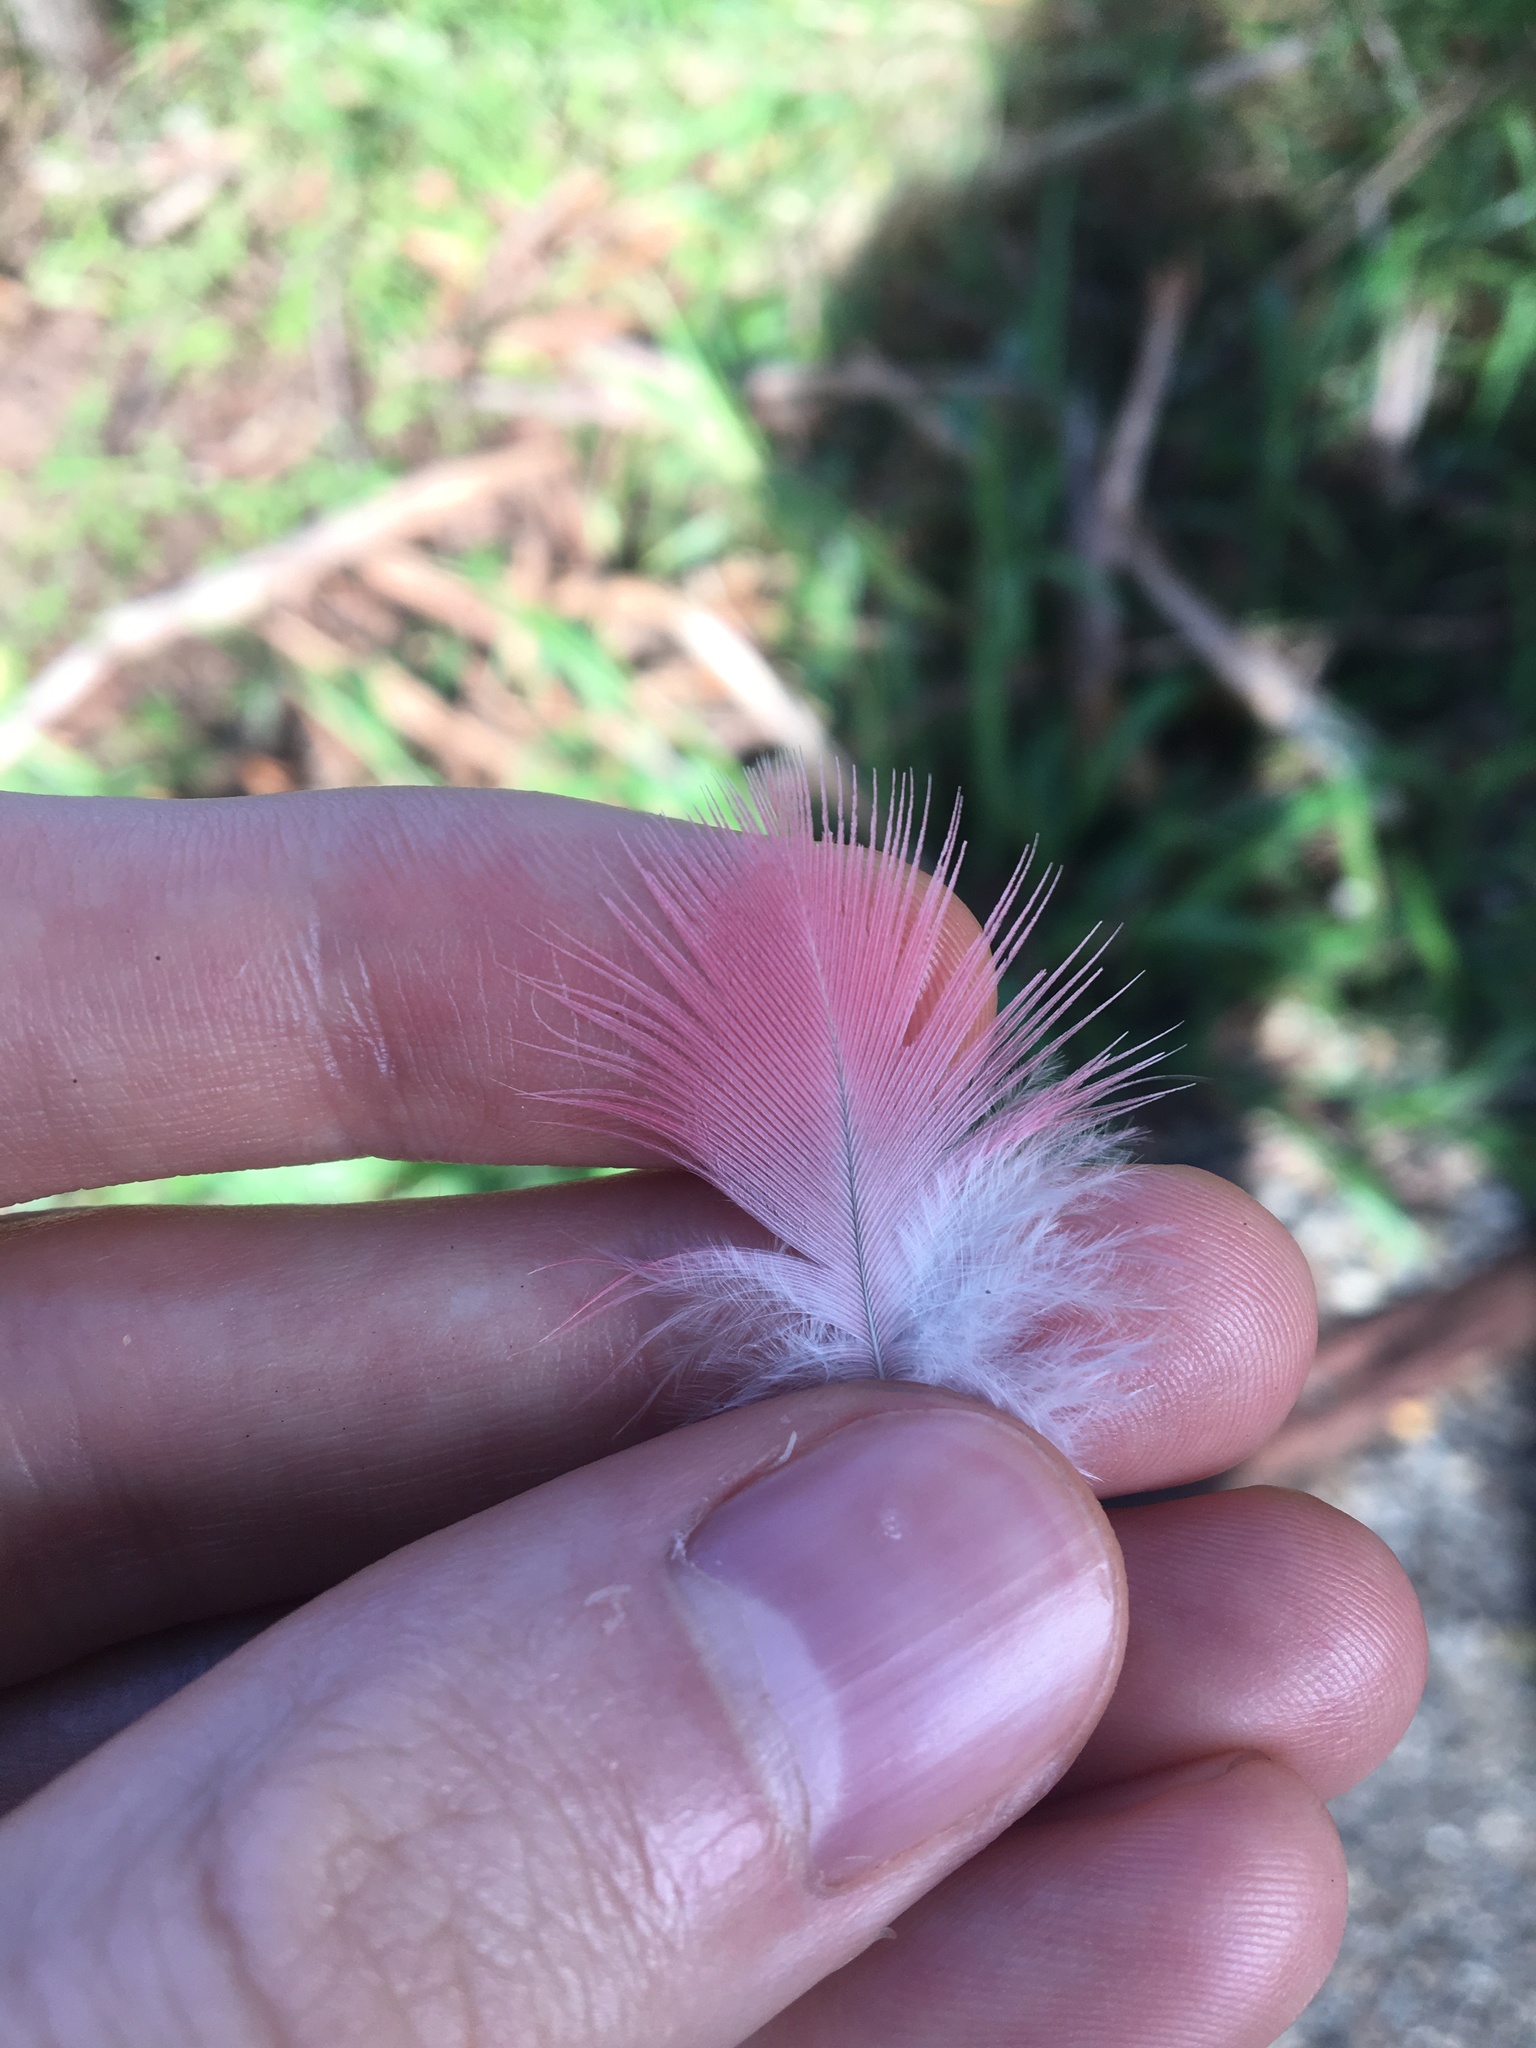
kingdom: Animalia
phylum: Chordata
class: Aves
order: Psittaciformes
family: Psittacidae
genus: Eolophus
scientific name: Eolophus roseicapilla
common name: Galah
